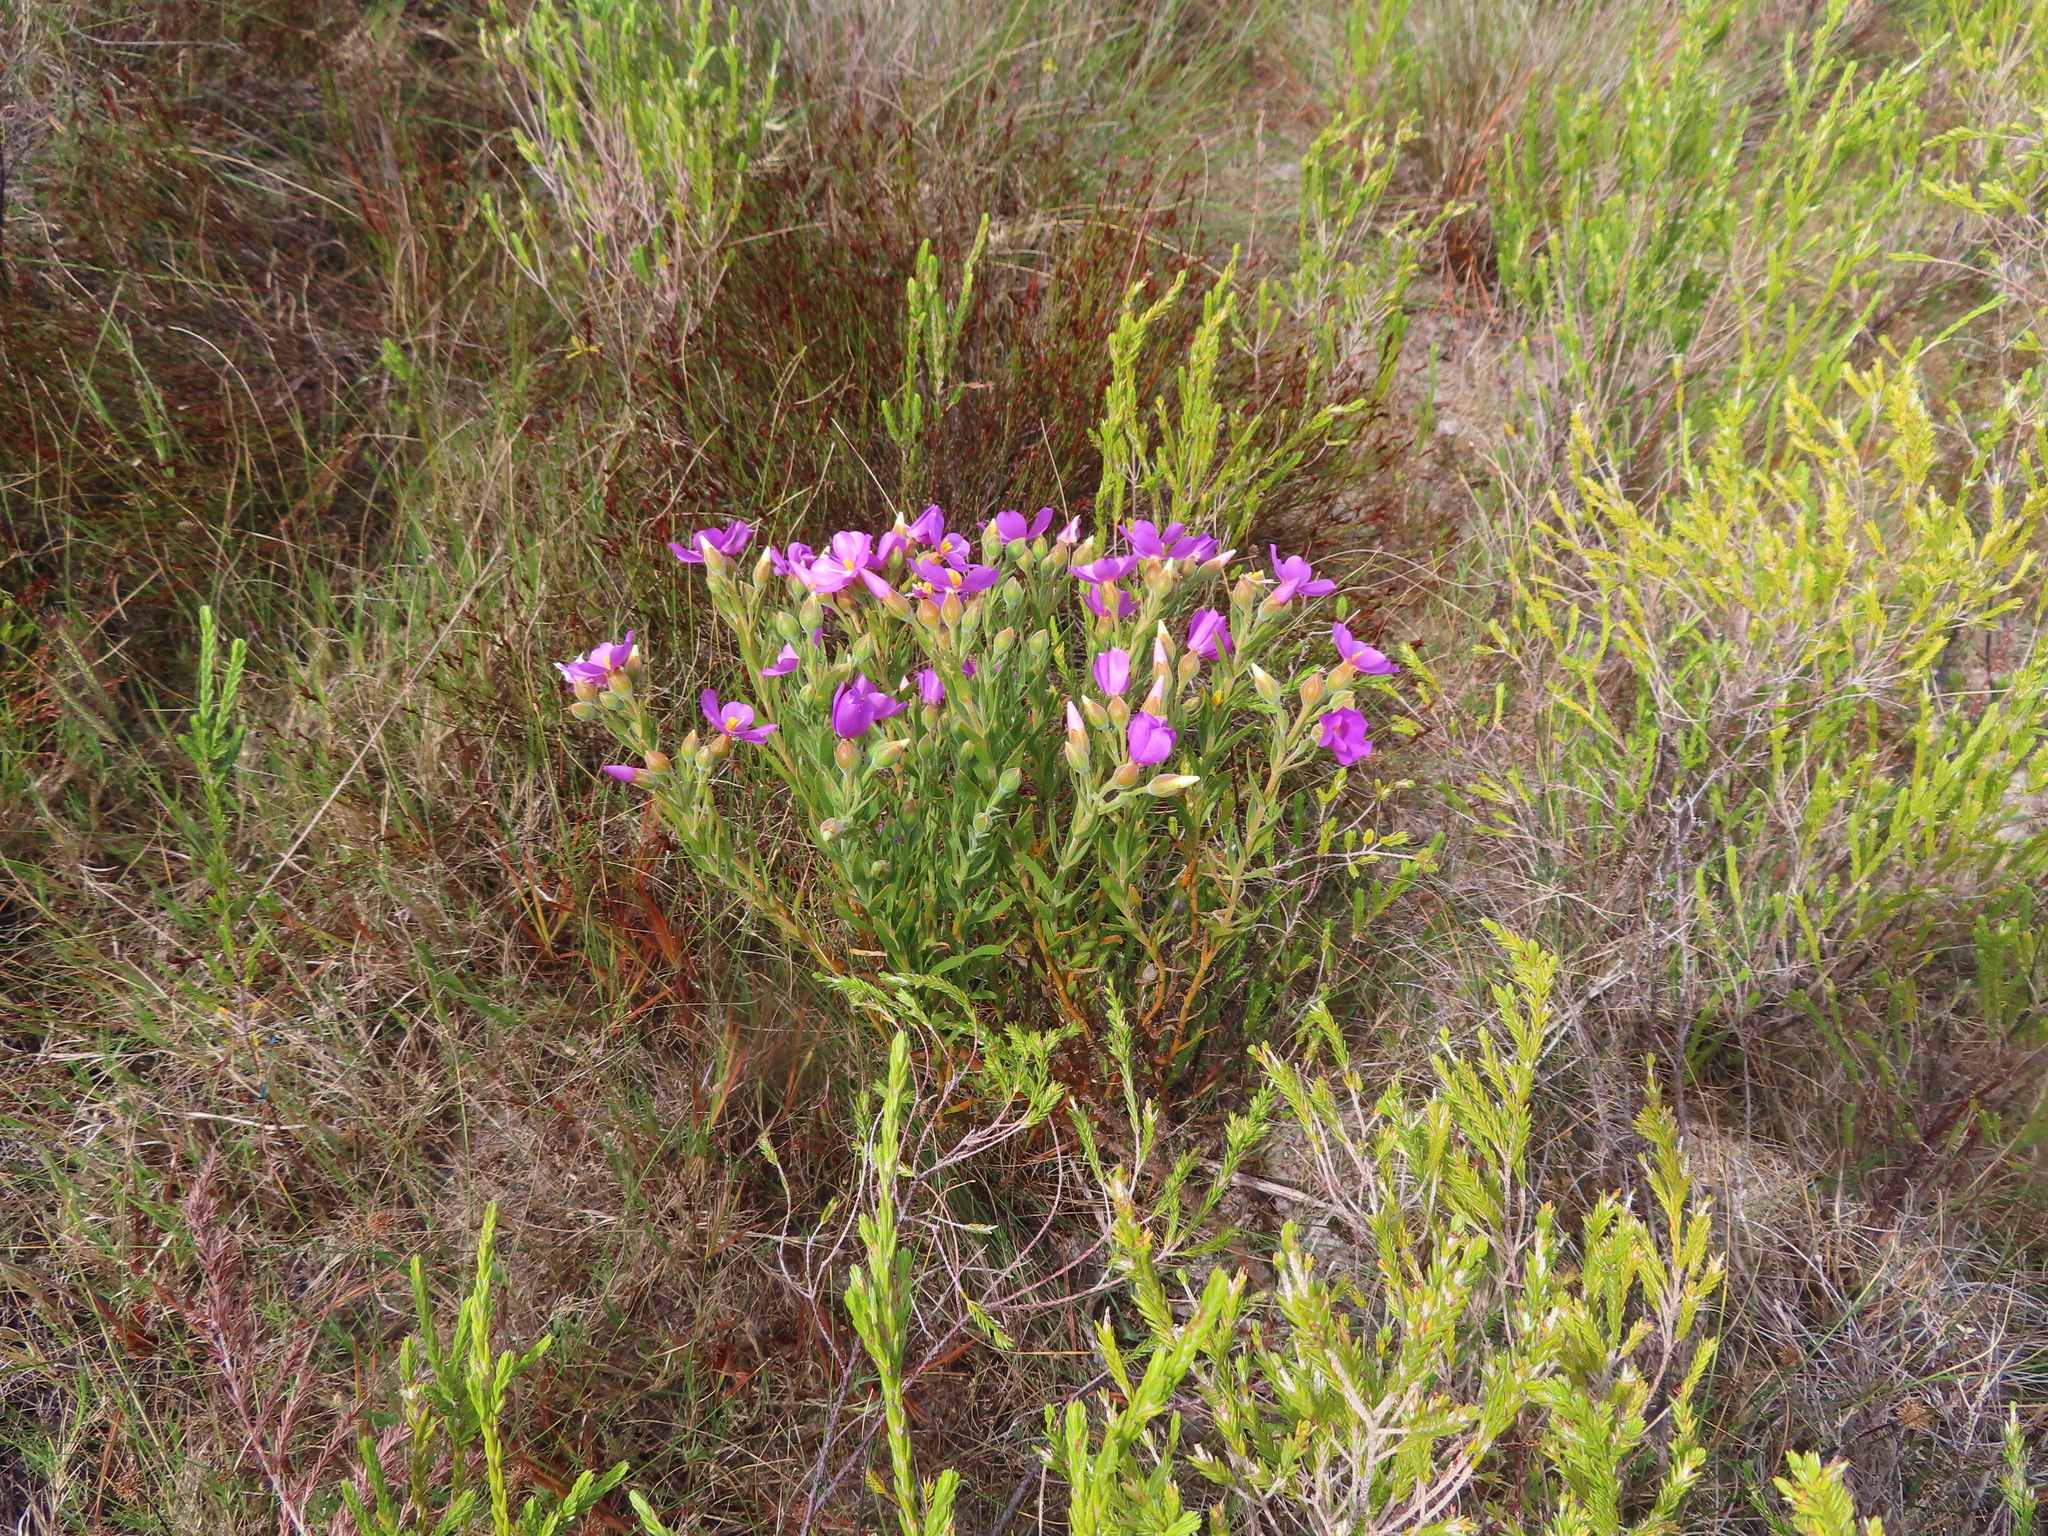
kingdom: Plantae
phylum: Tracheophyta
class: Magnoliopsida
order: Gentianales
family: Gentianaceae
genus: Orphium
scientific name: Orphium frutescens
